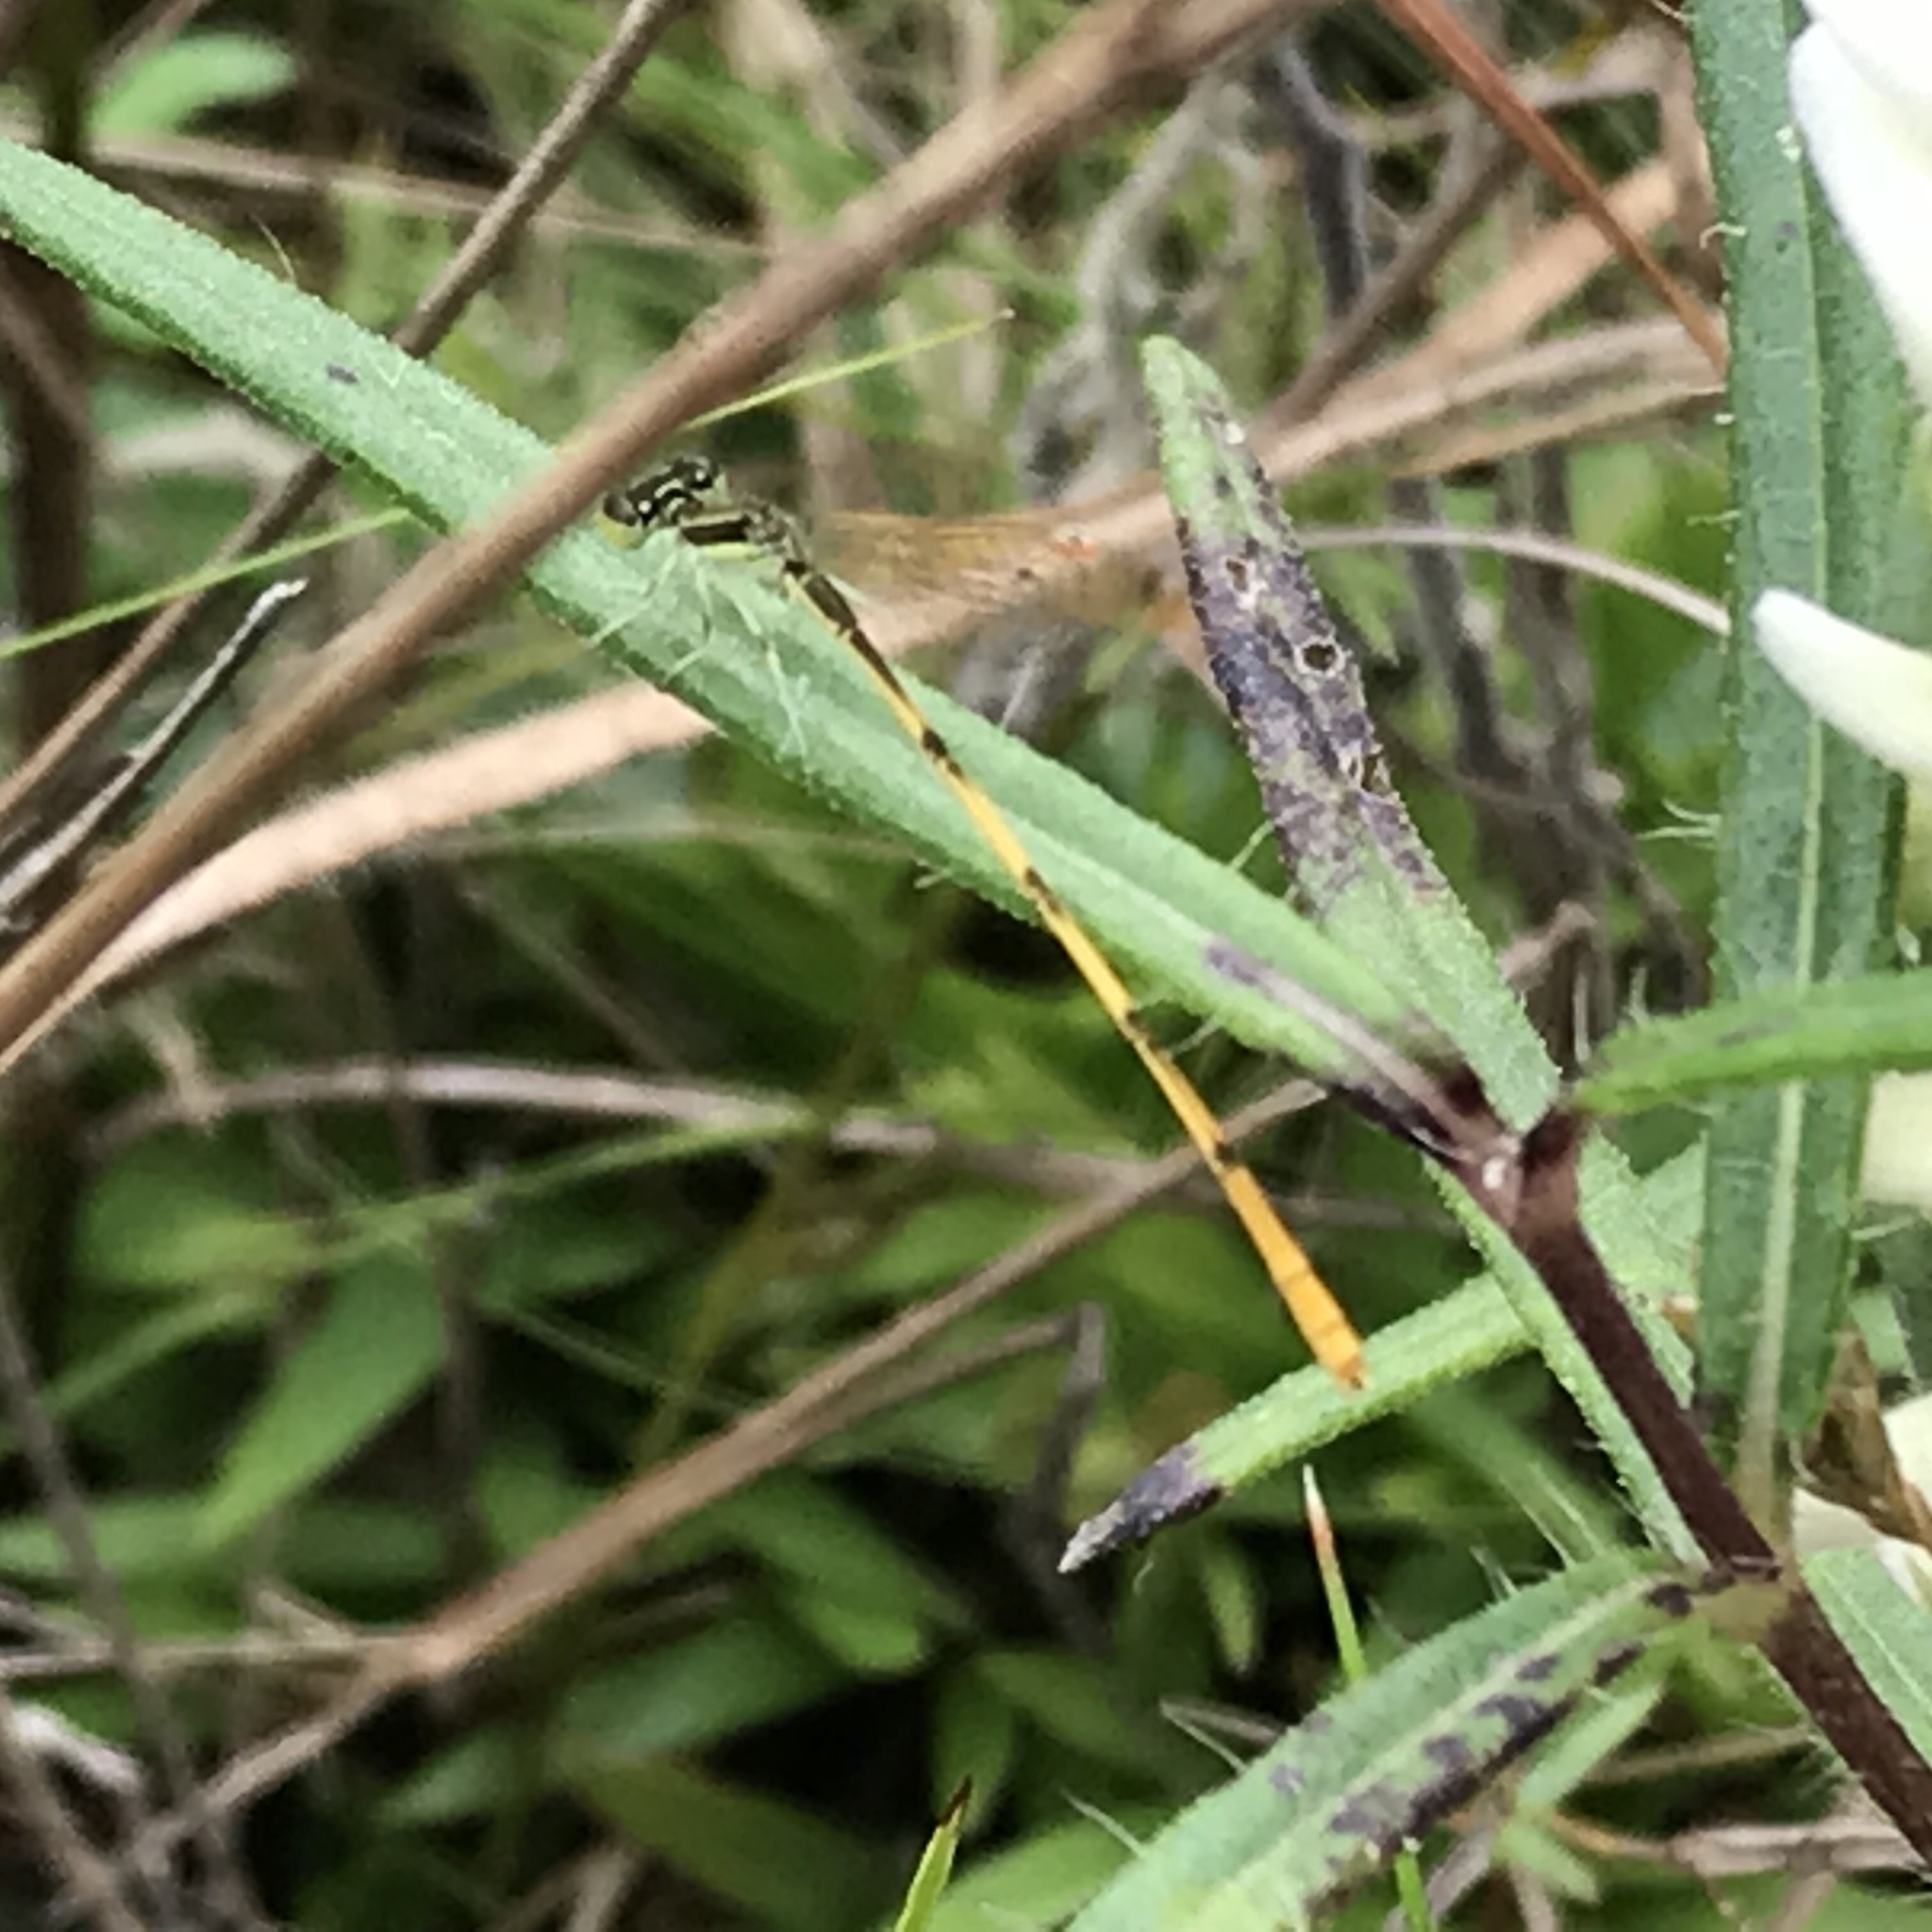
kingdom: Animalia
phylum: Arthropoda
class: Insecta
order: Odonata
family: Coenagrionidae
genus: Ischnura
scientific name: Ischnura hastata
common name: Citrine forktail
